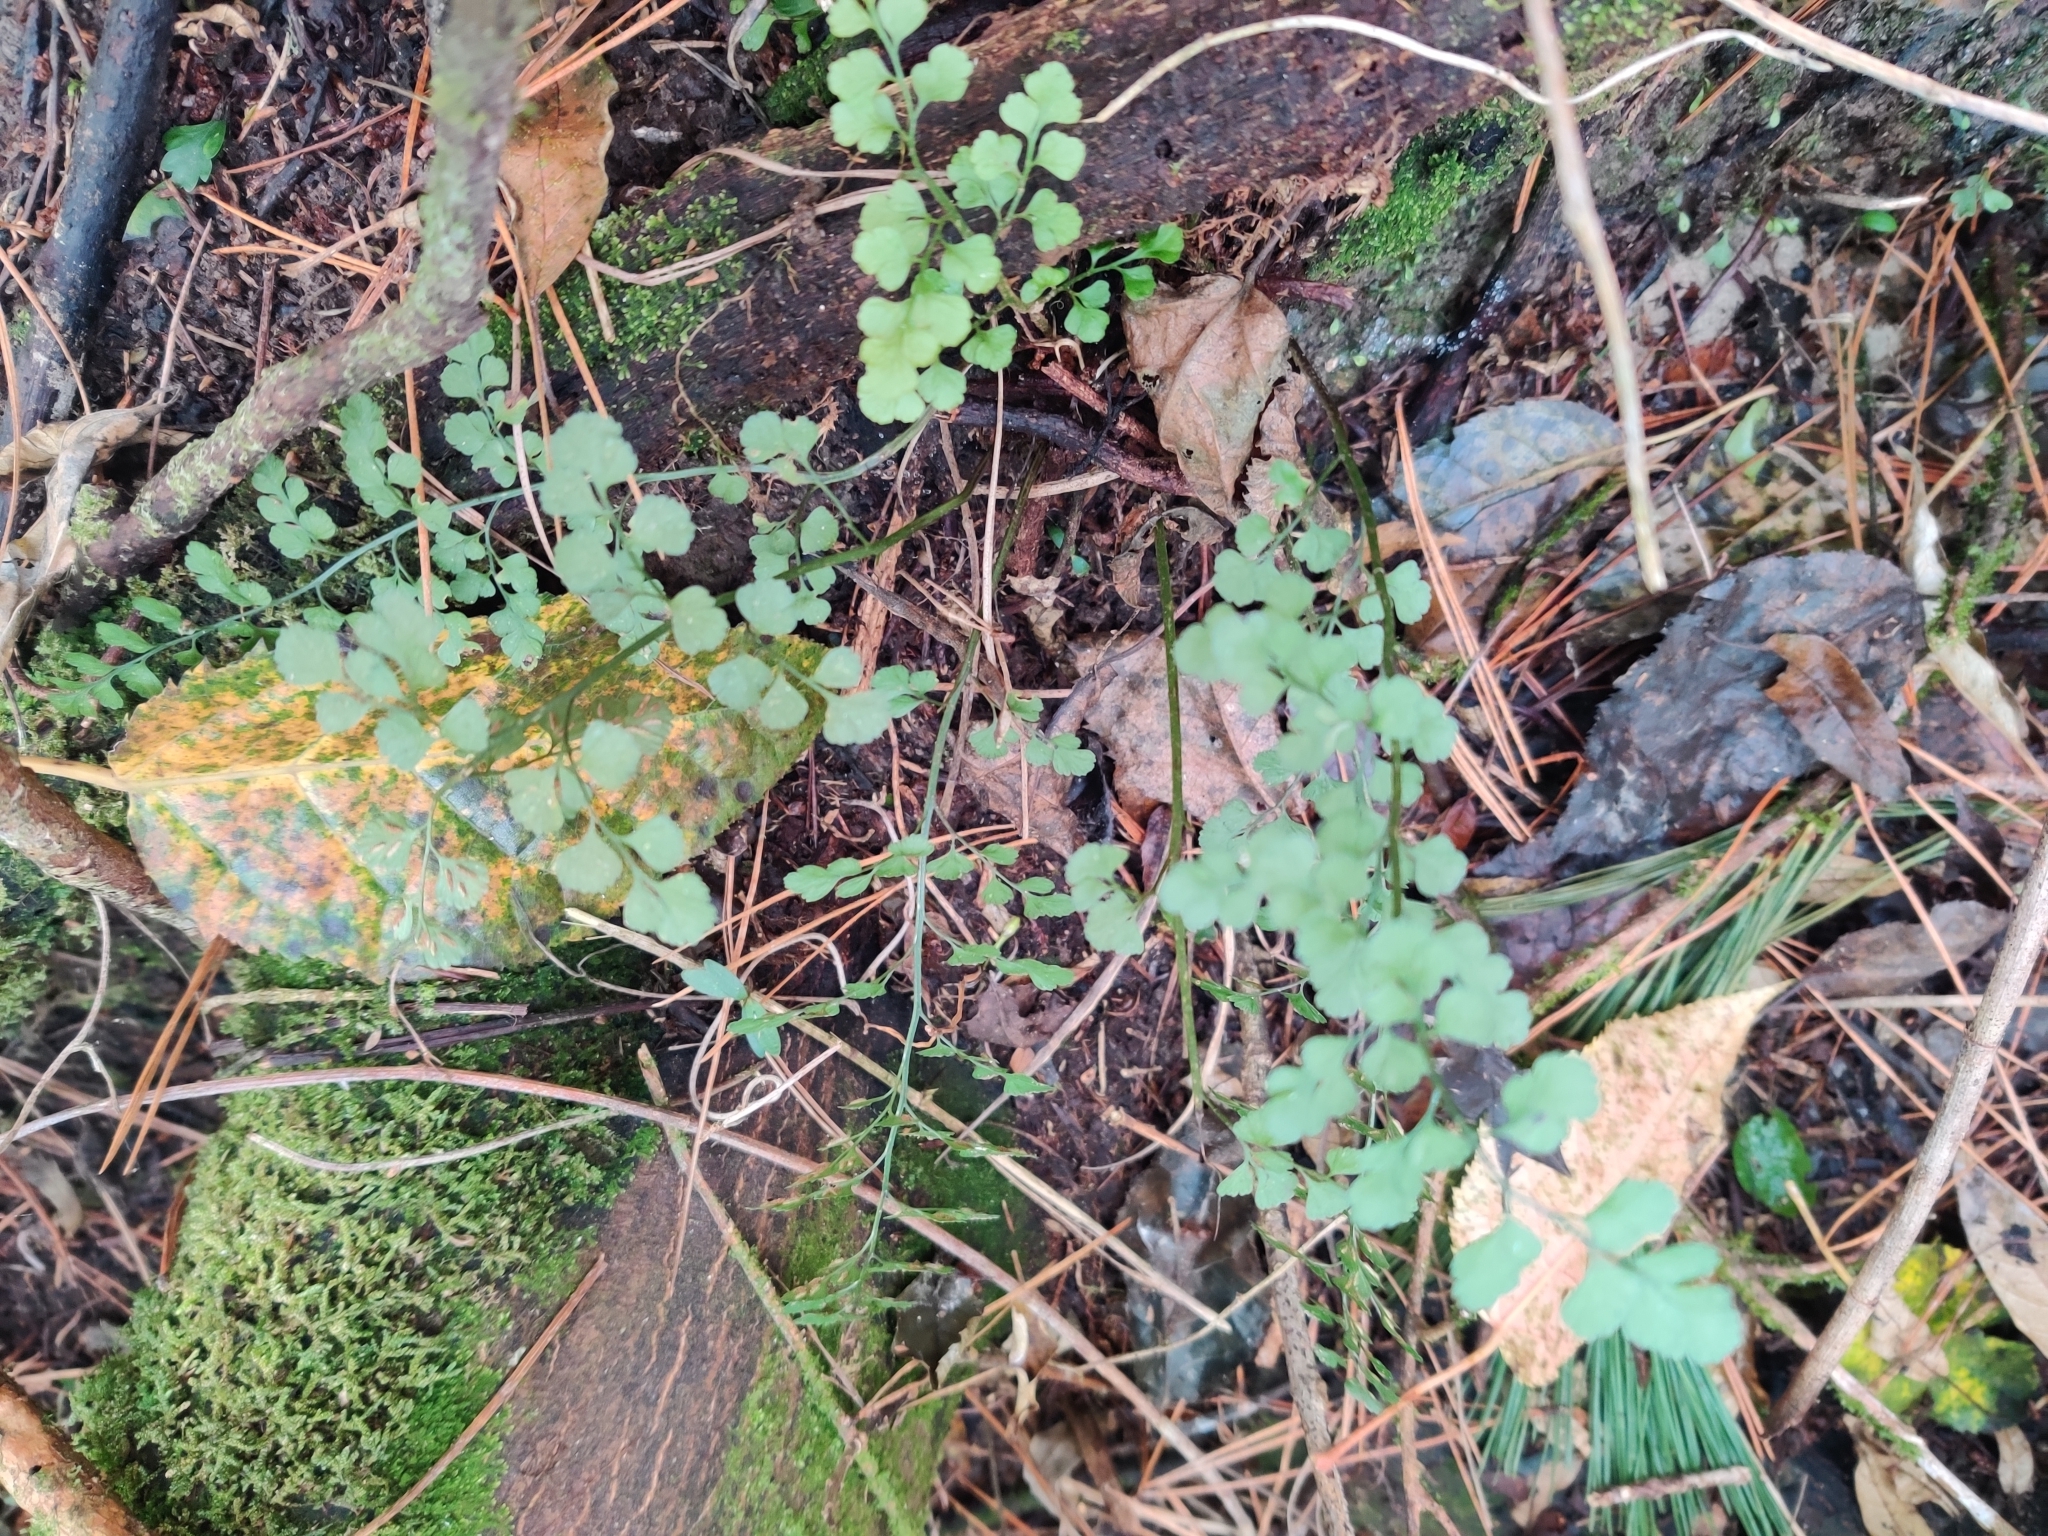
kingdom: Plantae
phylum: Tracheophyta
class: Polypodiopsida
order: Polypodiales
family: Aspleniaceae
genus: Asplenium
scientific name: Asplenium hookerianum
